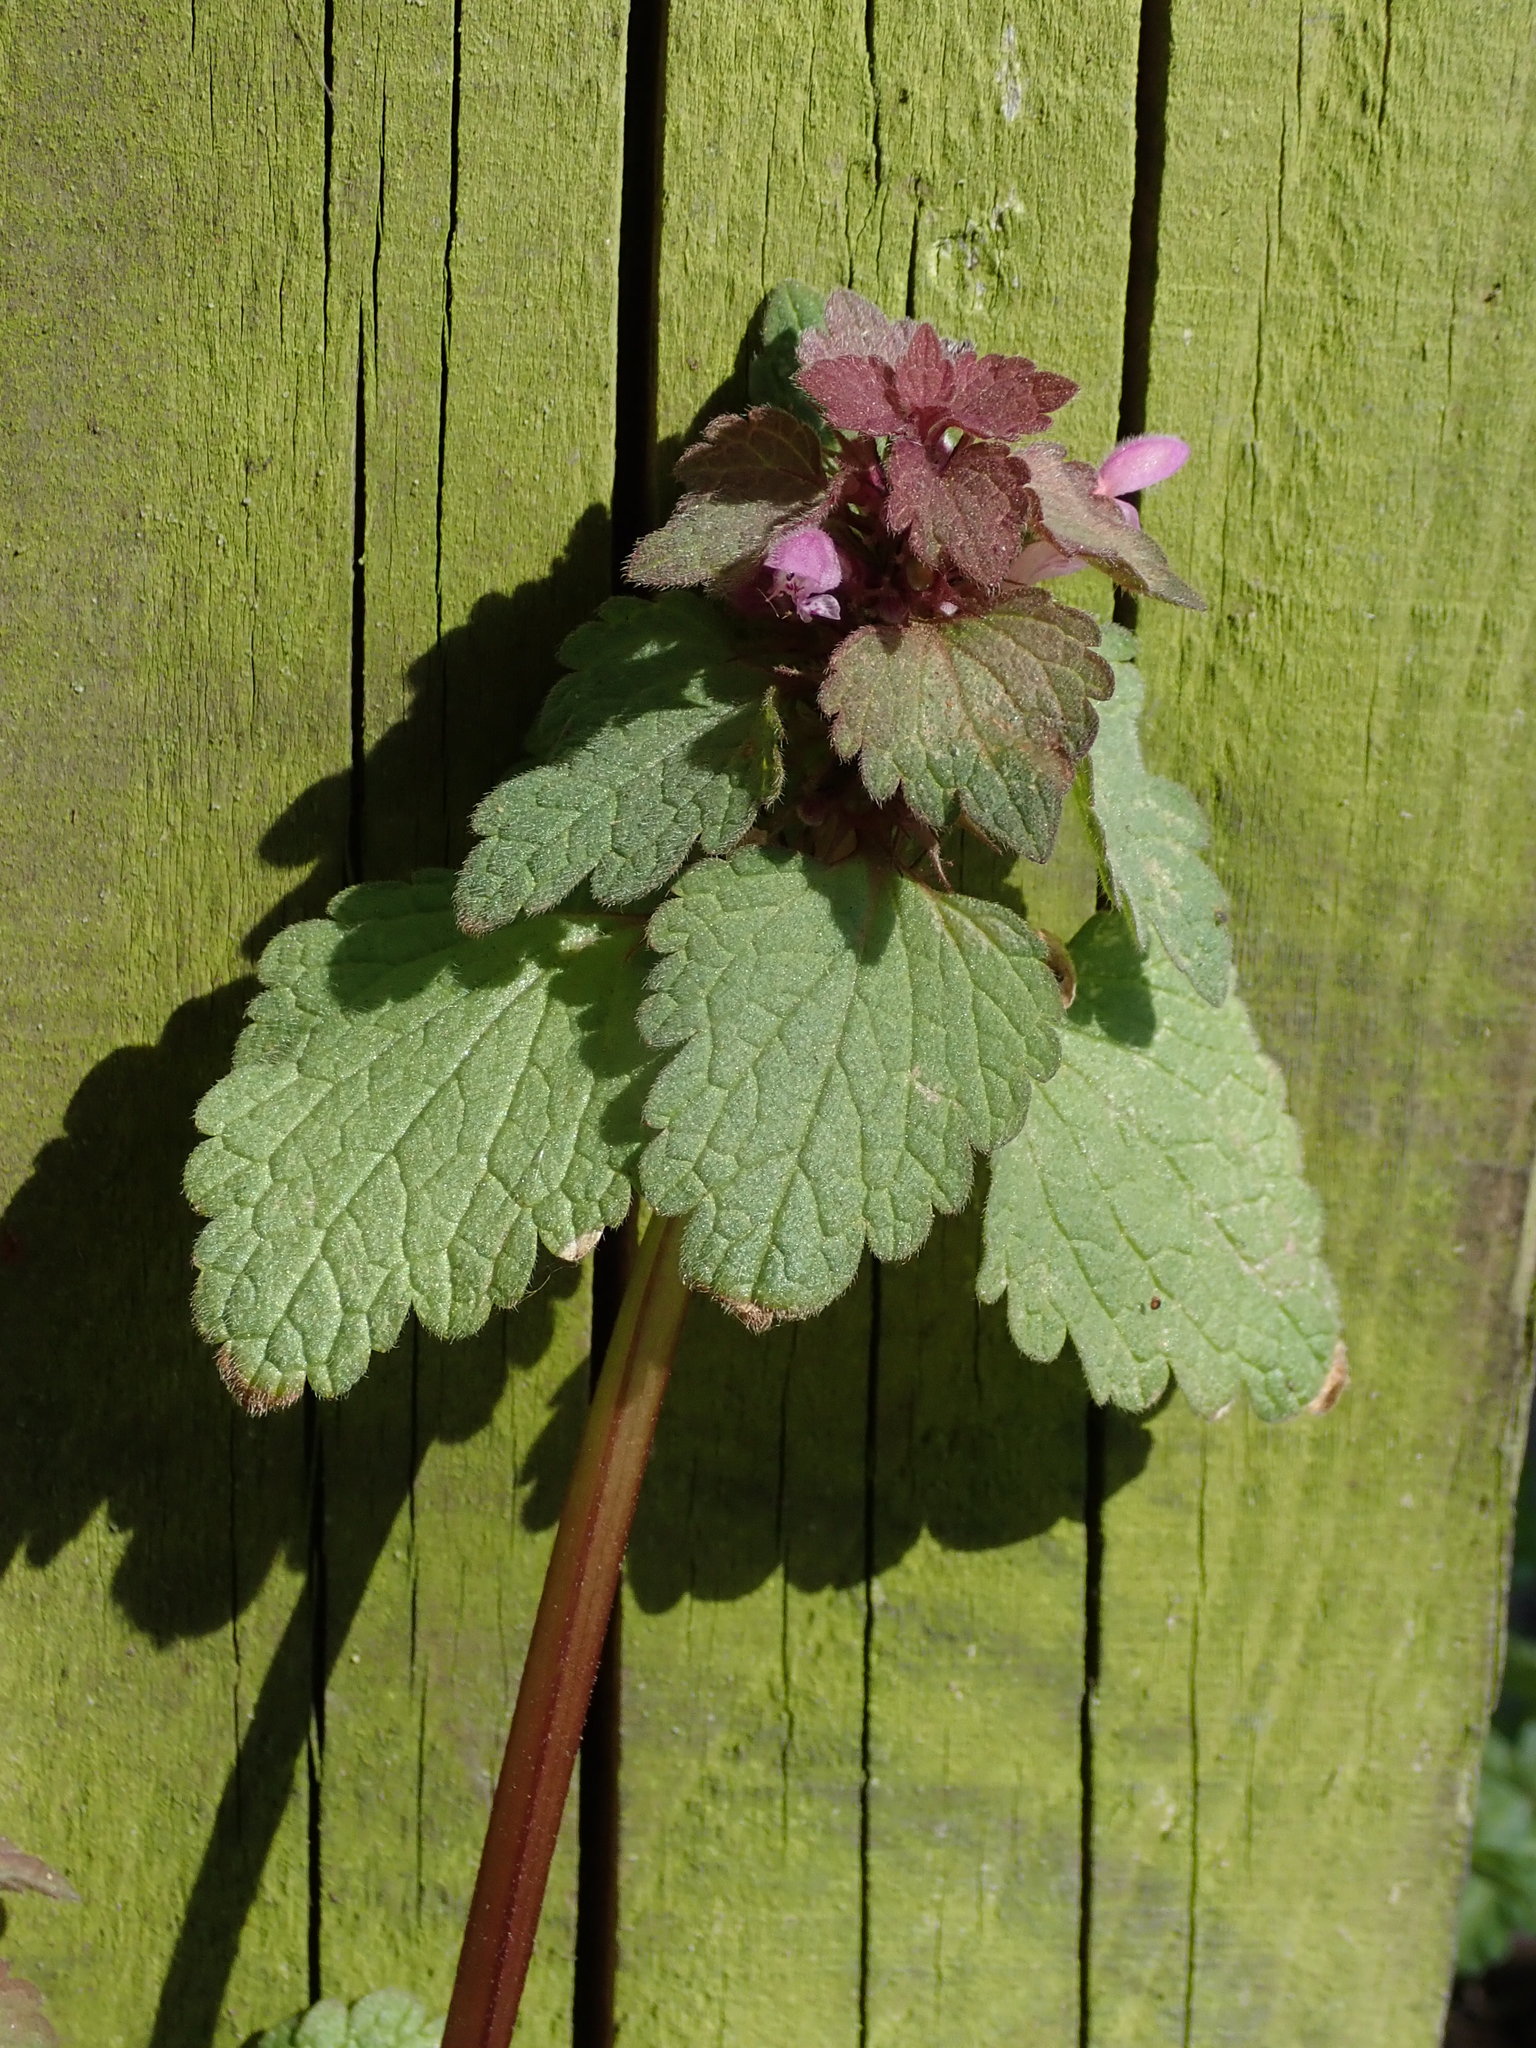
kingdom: Plantae
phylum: Tracheophyta
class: Magnoliopsida
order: Lamiales
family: Lamiaceae
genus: Lamium
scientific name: Lamium purpureum
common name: Red dead-nettle
